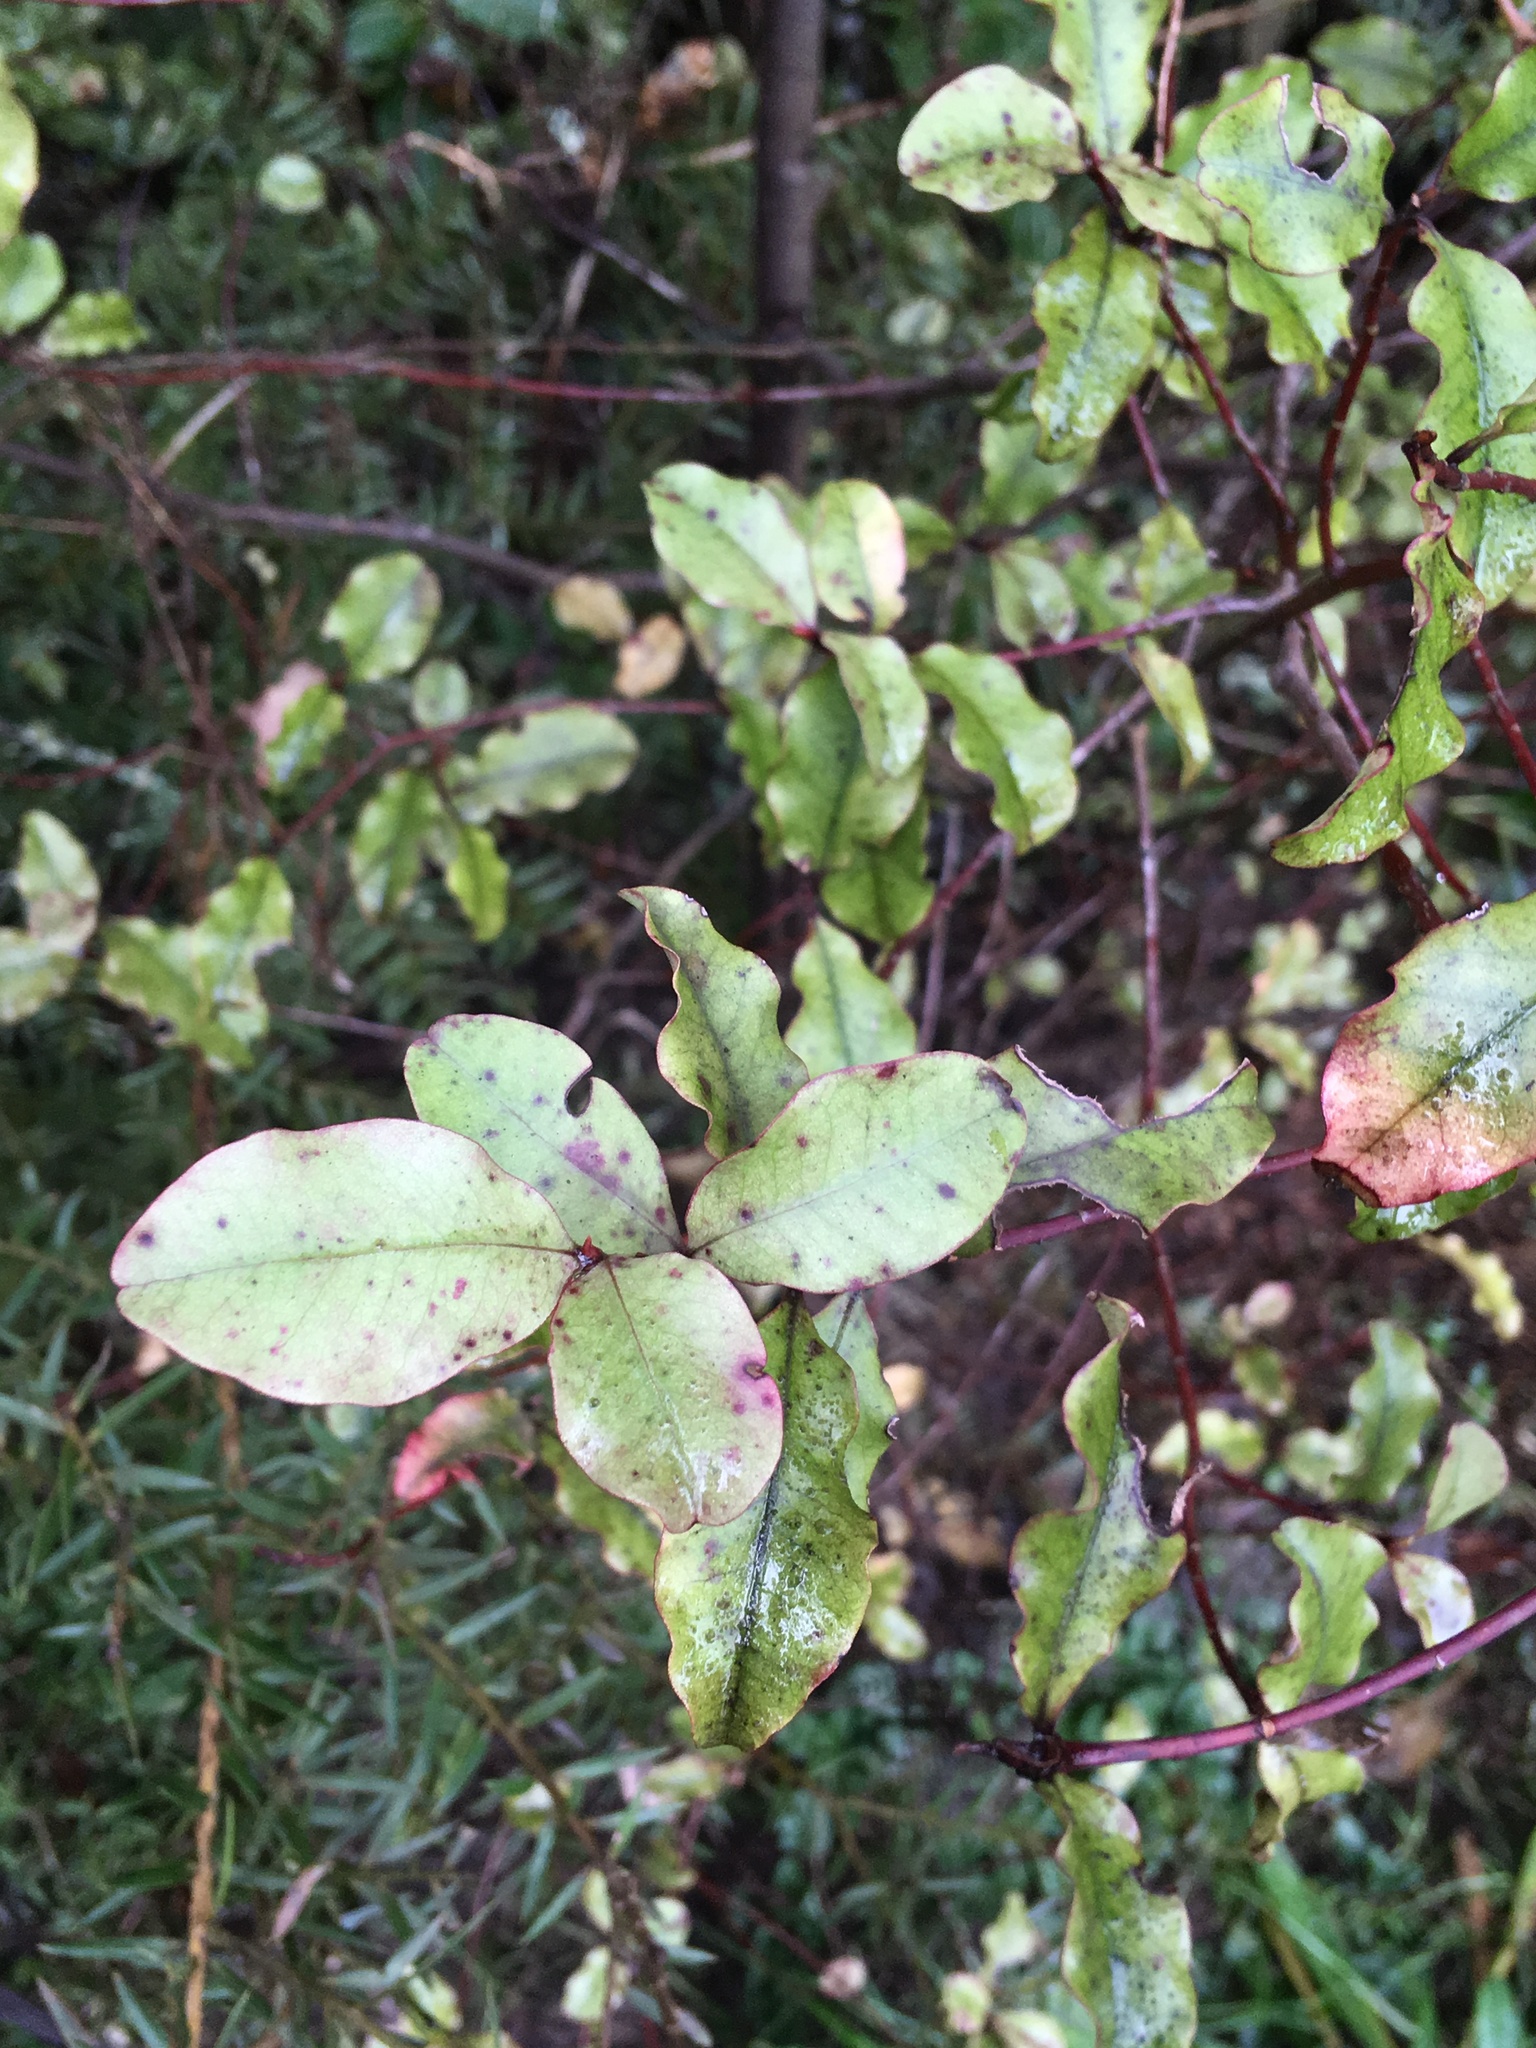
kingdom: Plantae
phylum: Tracheophyta
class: Magnoliopsida
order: Ericales
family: Primulaceae
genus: Myrsine
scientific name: Myrsine australis
